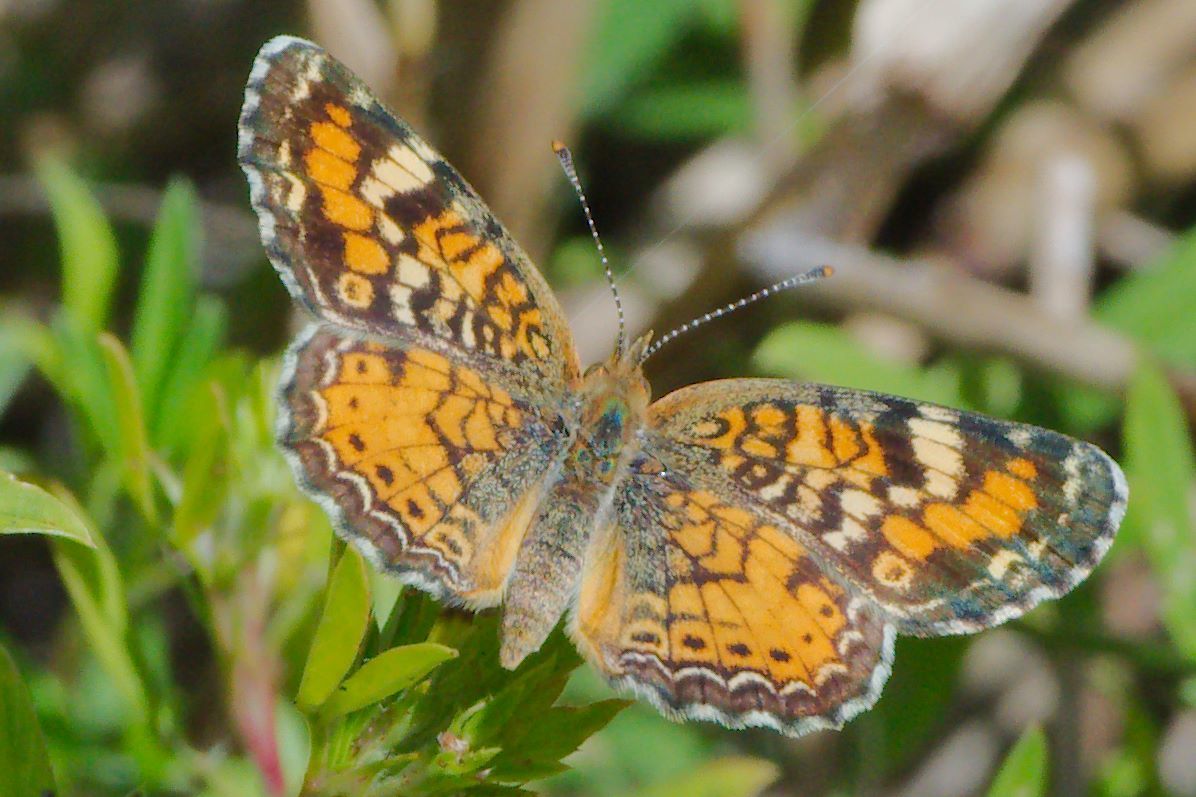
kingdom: Animalia
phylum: Arthropoda
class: Insecta
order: Lepidoptera
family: Nymphalidae
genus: Phyciodes
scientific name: Phyciodes phaon
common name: Phaon crescent
